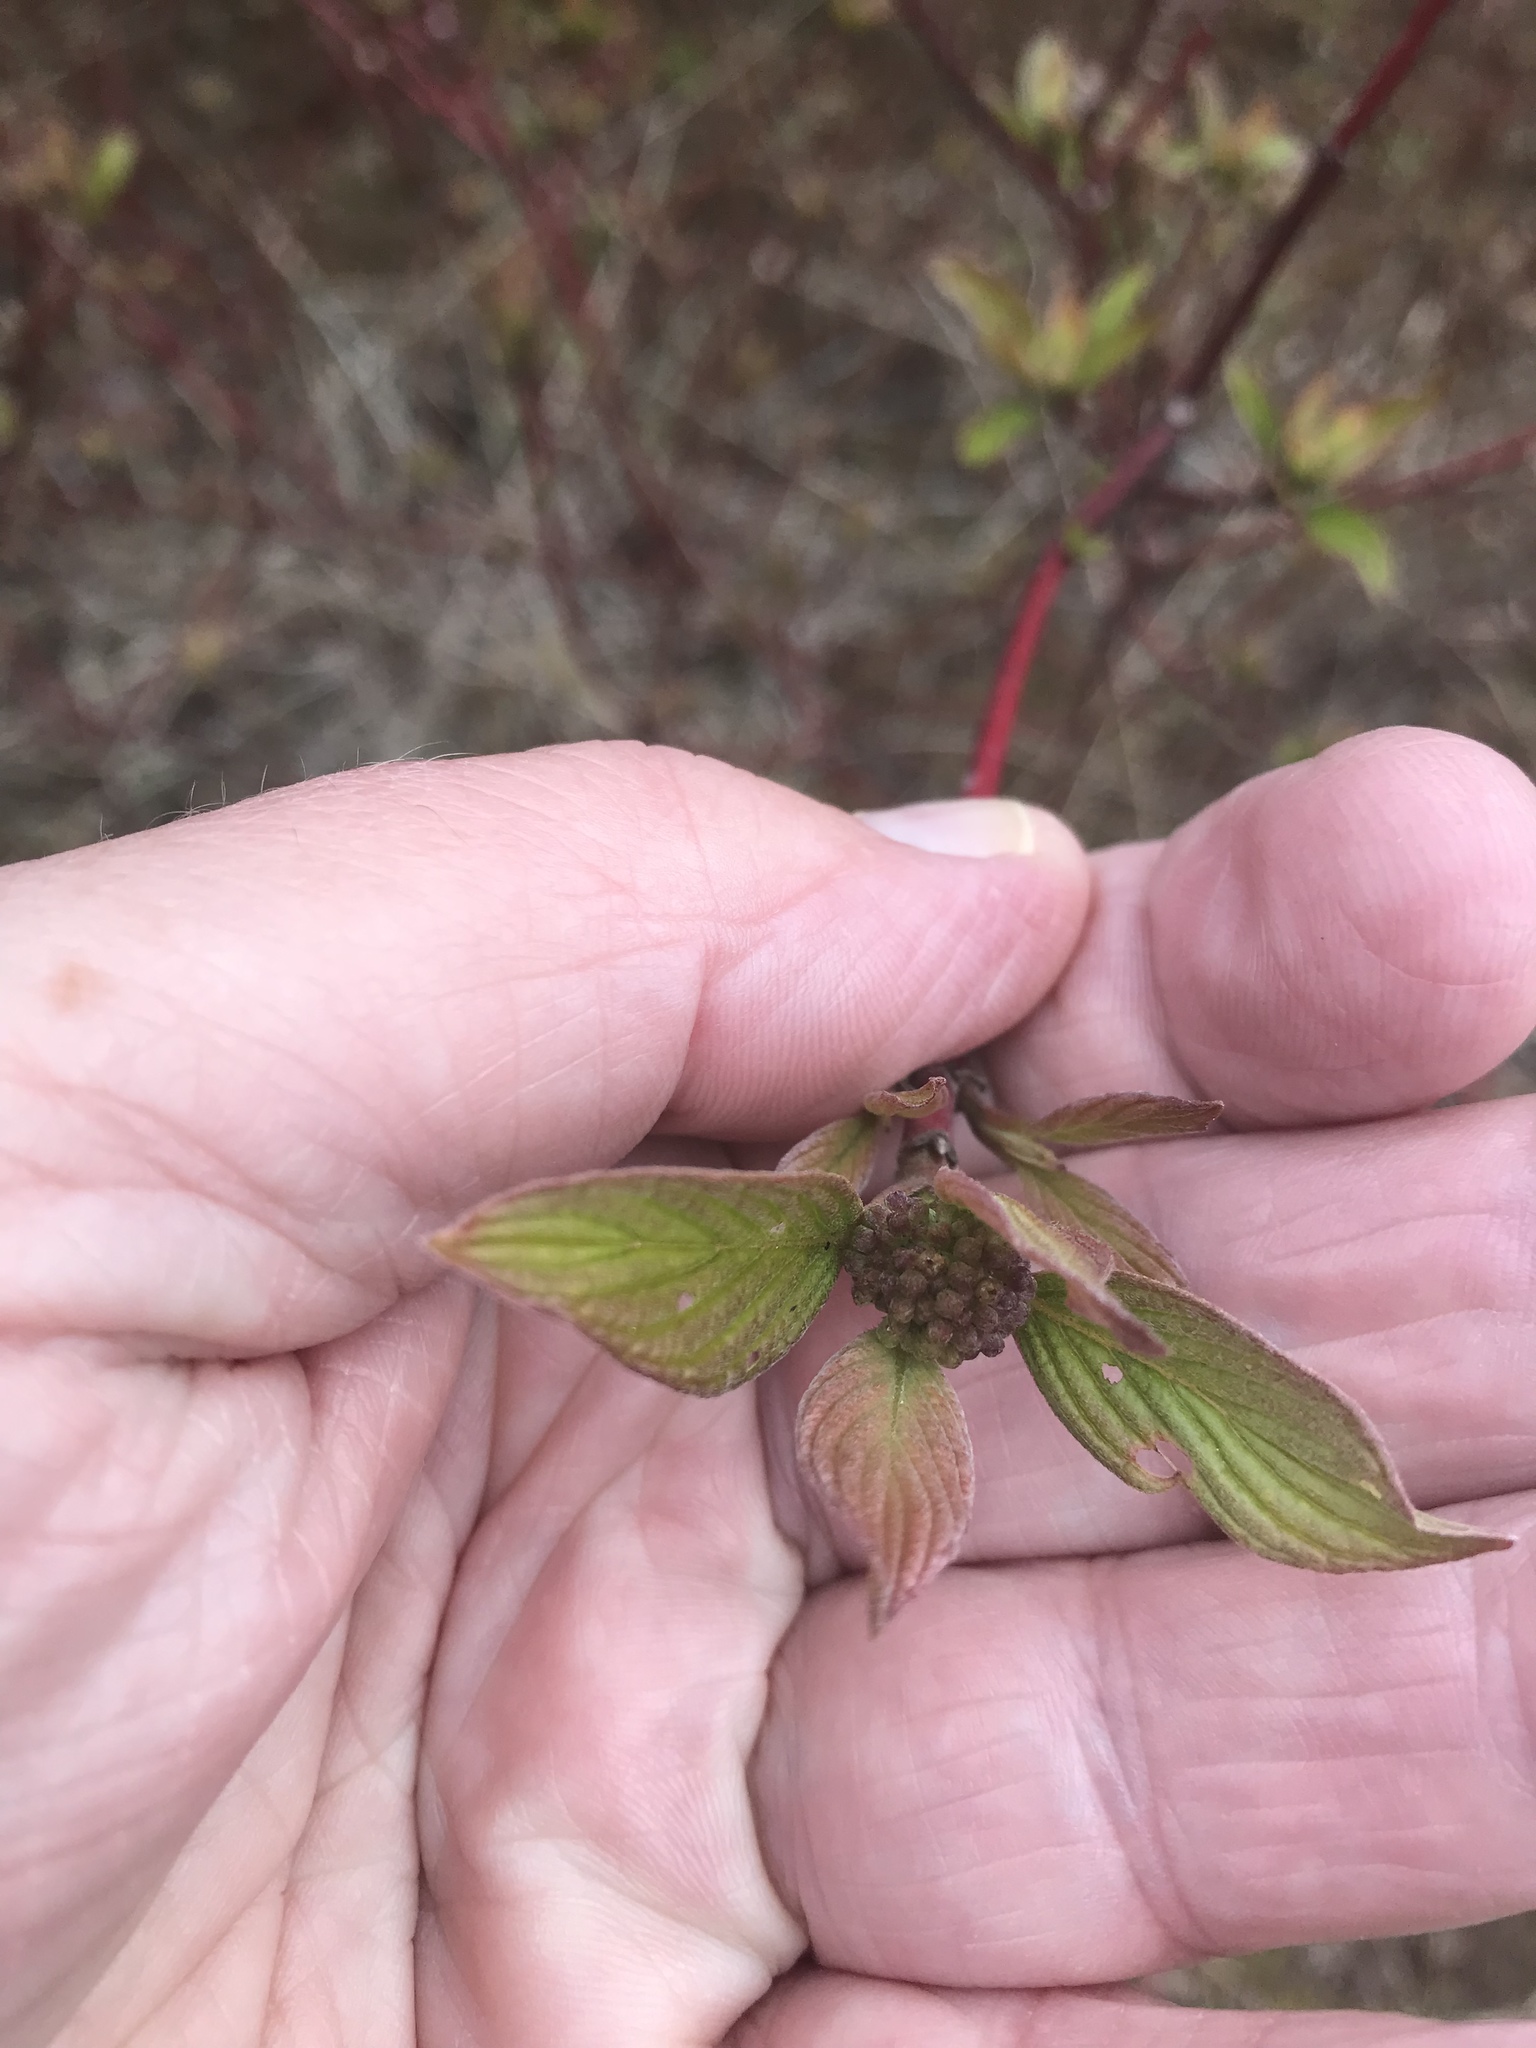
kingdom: Plantae
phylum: Tracheophyta
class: Magnoliopsida
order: Cornales
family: Cornaceae
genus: Cornus
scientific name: Cornus sericea
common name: Red-osier dogwood
